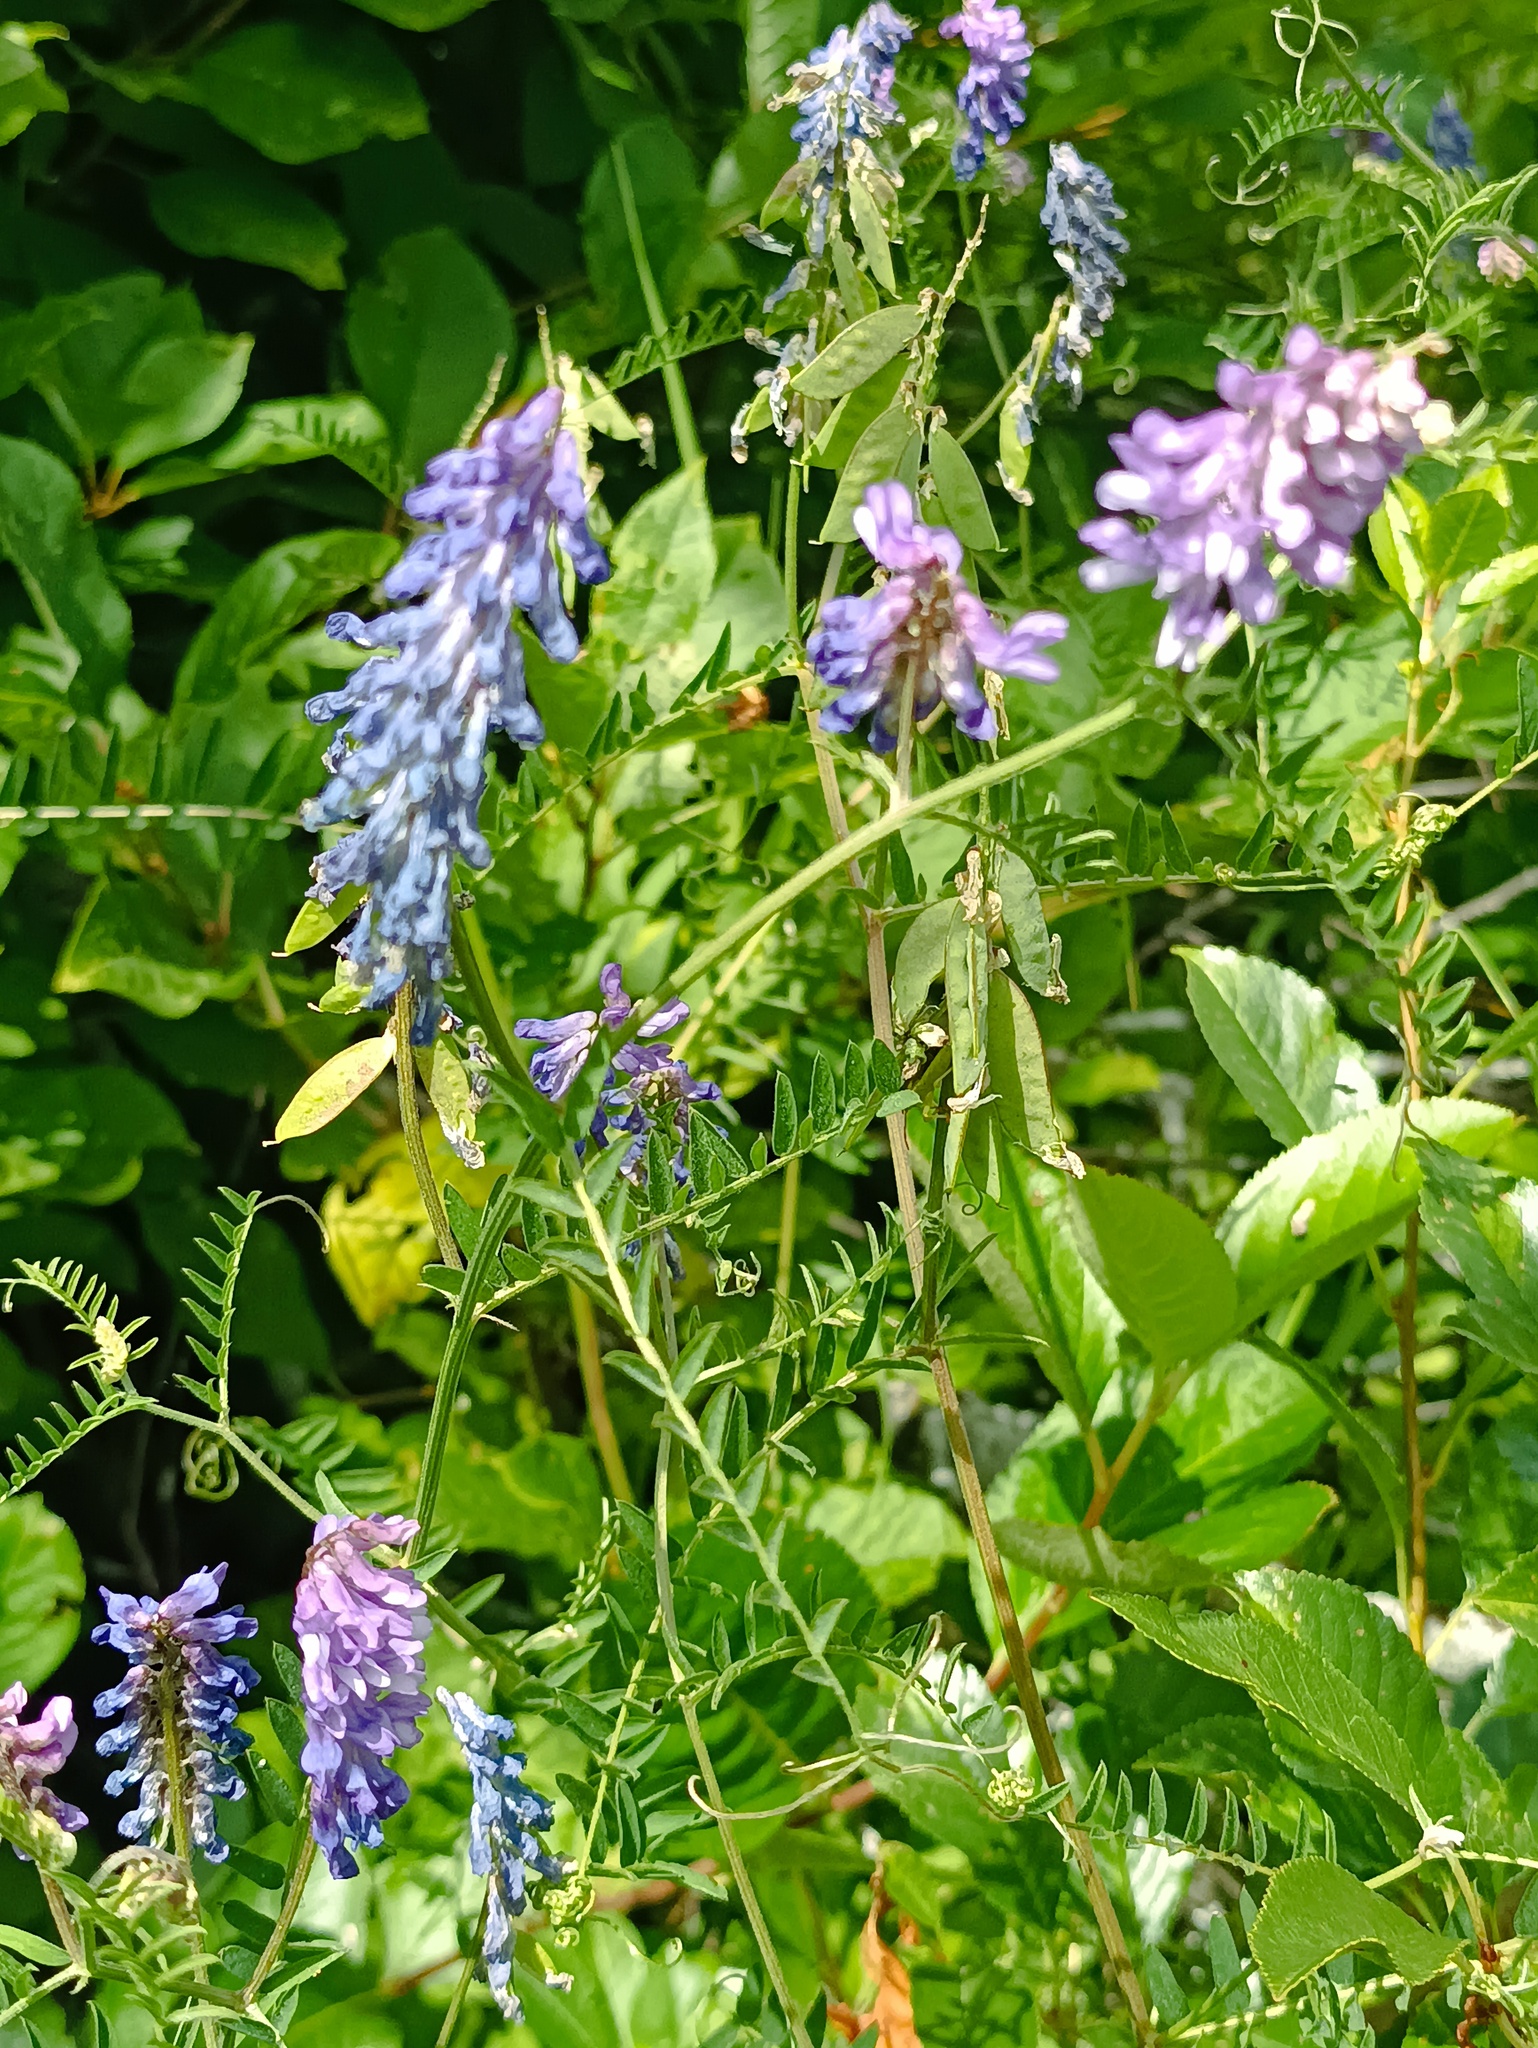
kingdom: Plantae
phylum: Tracheophyta
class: Magnoliopsida
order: Fabales
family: Fabaceae
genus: Vicia
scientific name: Vicia cracca
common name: Bird vetch
